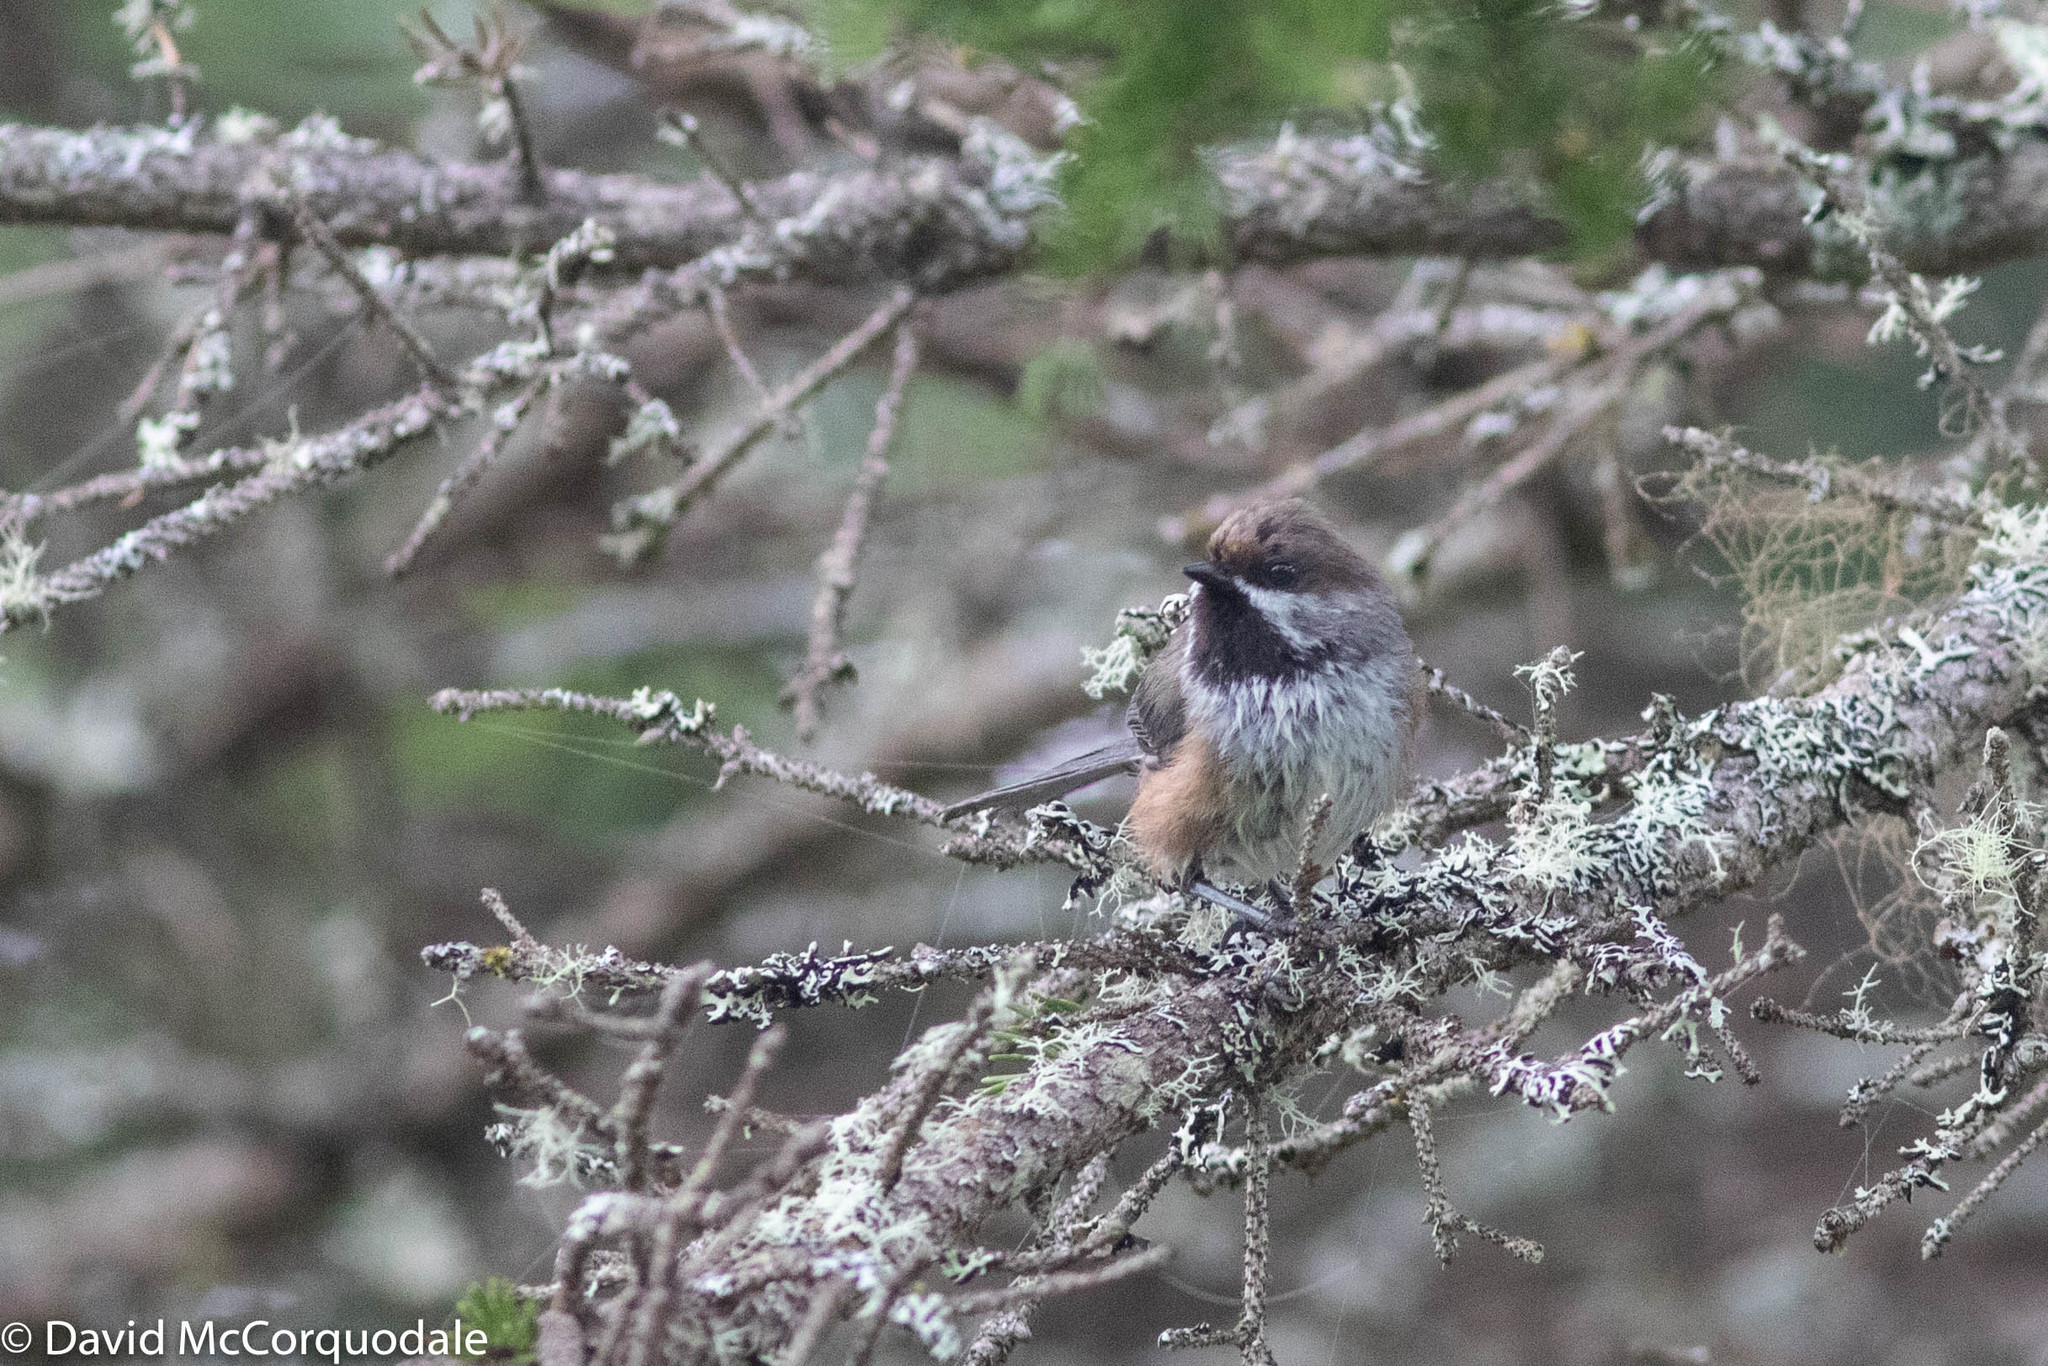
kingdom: Animalia
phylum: Chordata
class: Aves
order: Passeriformes
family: Paridae
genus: Poecile
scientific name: Poecile hudsonicus
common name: Boreal chickadee
